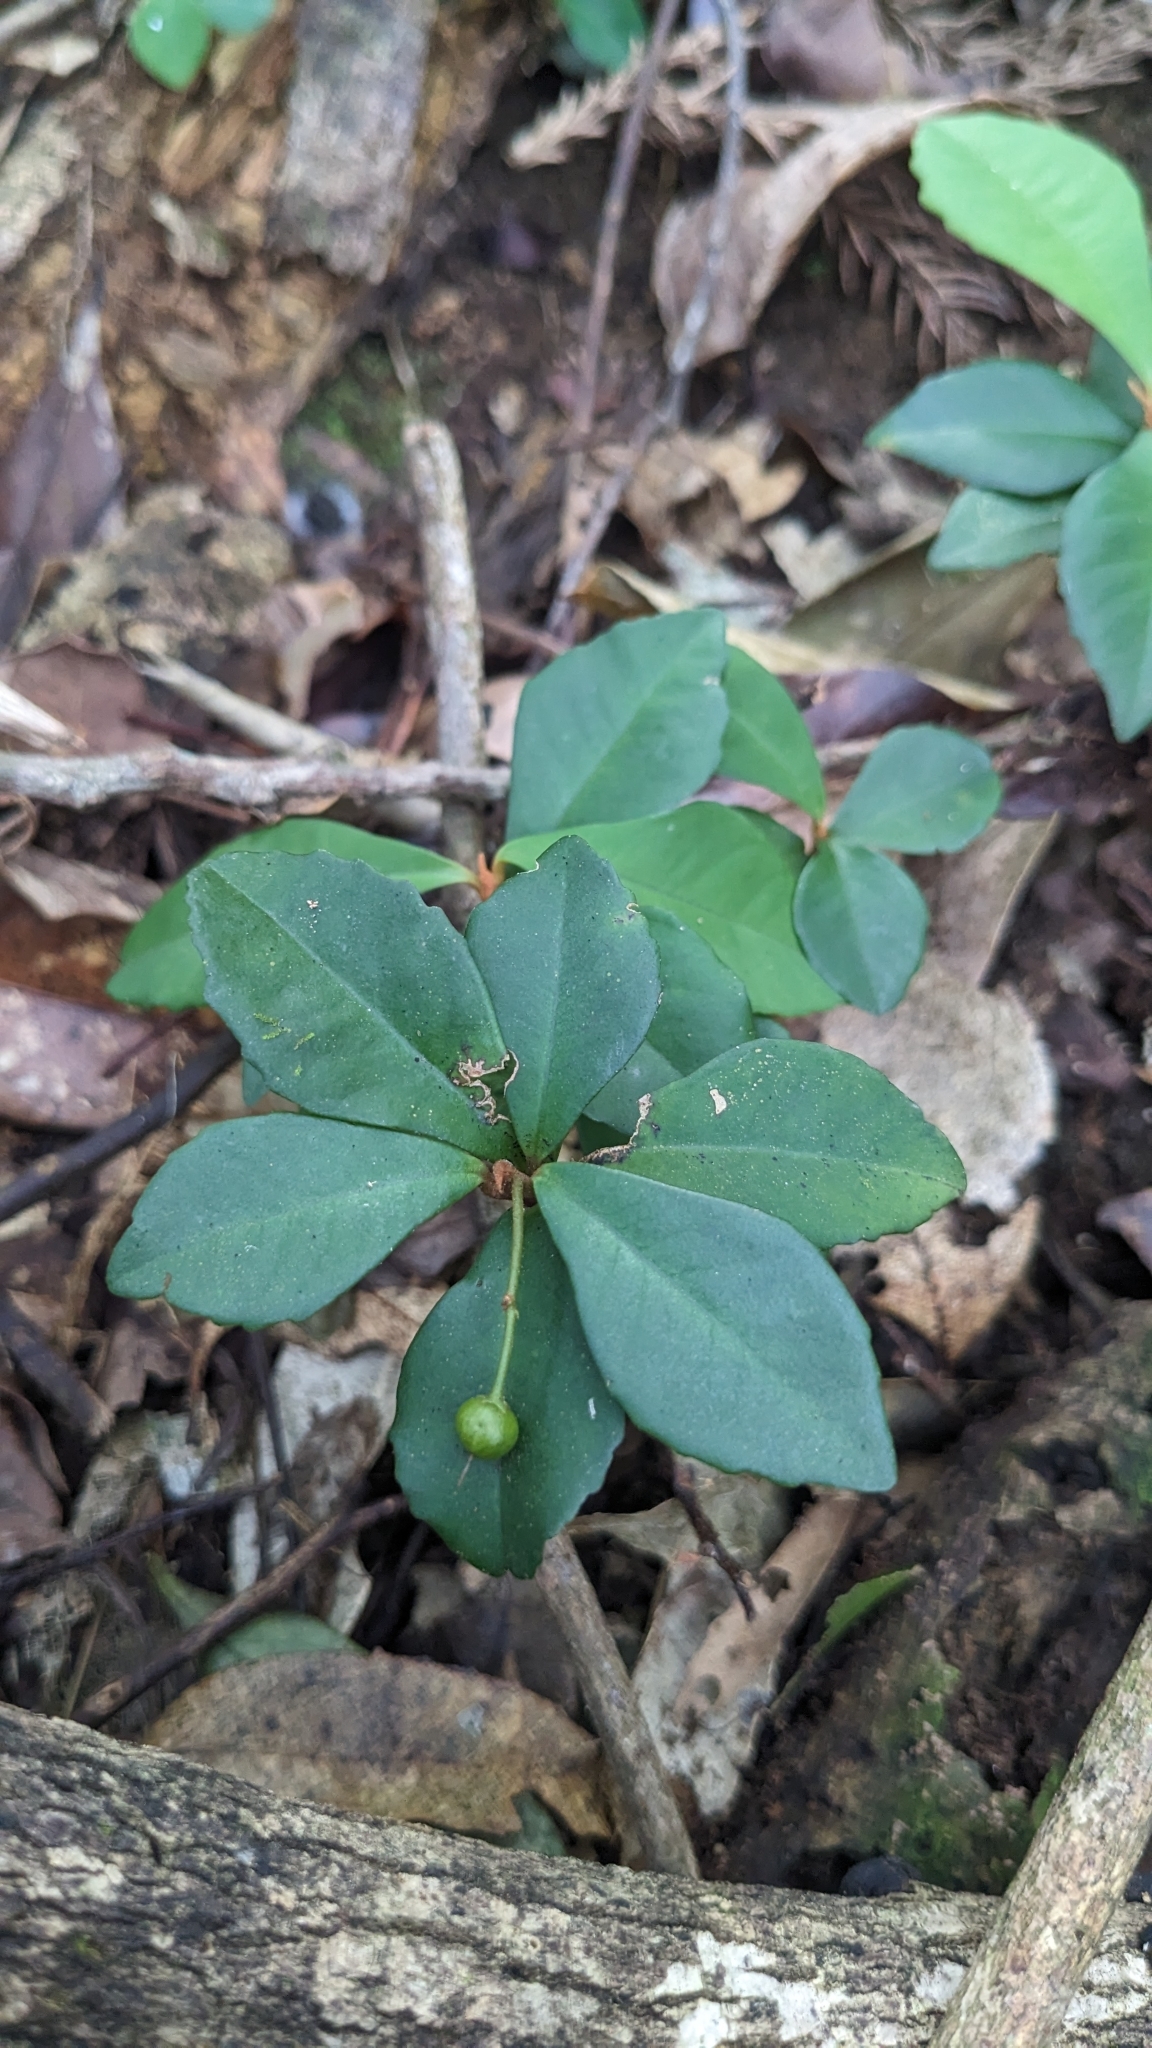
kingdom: Plantae
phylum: Tracheophyta
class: Magnoliopsida
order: Ericales
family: Primulaceae
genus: Ardisia
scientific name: Ardisia cymosa
